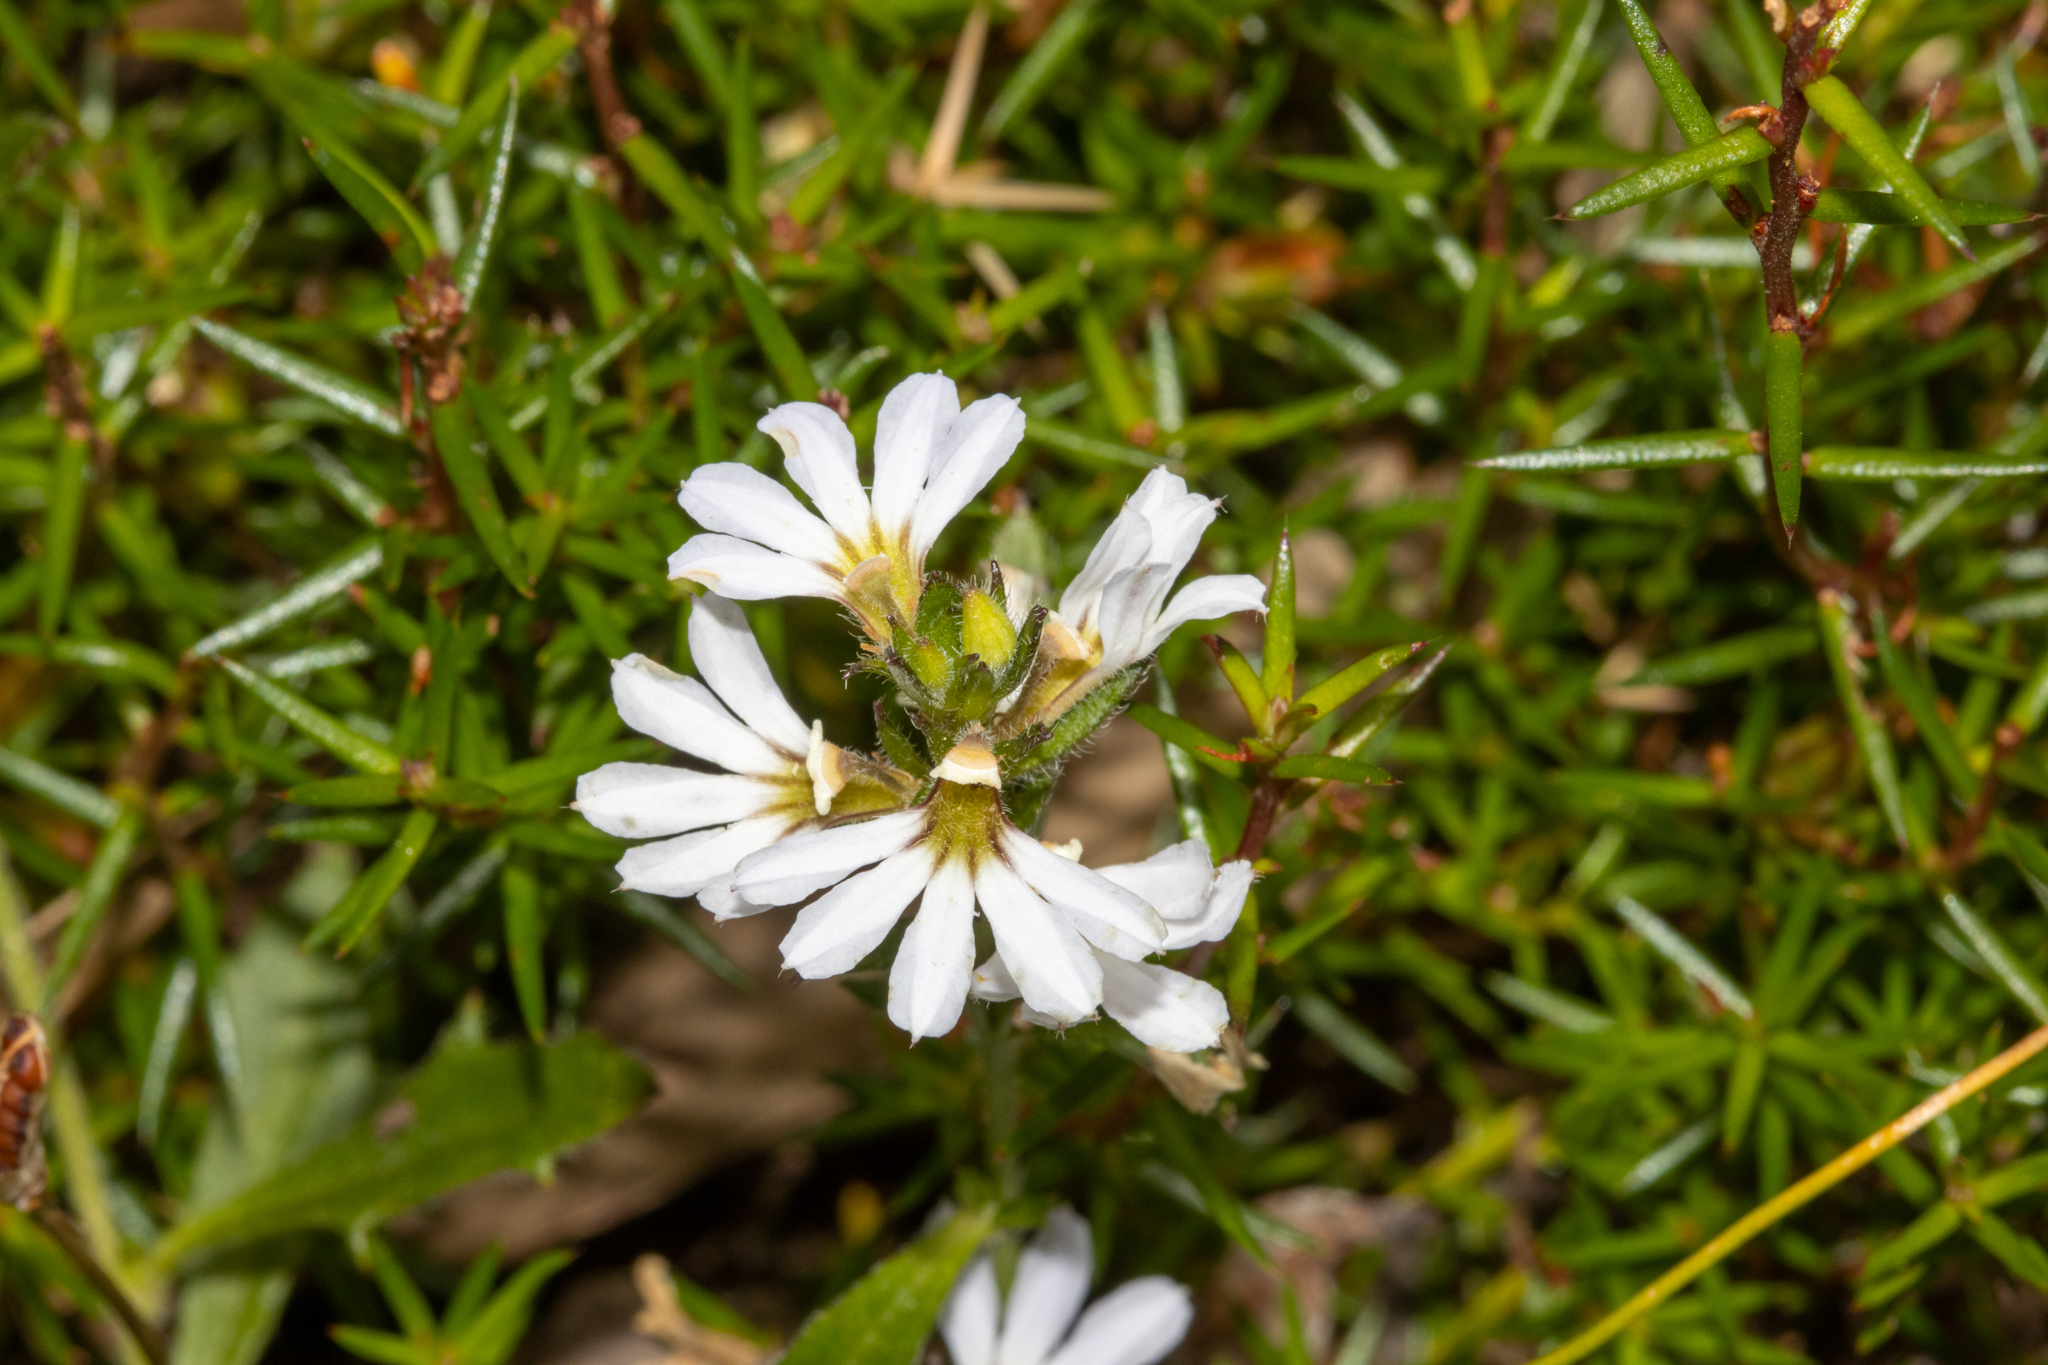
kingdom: Plantae
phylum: Tracheophyta
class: Magnoliopsida
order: Asterales
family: Goodeniaceae
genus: Scaevola
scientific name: Scaevola albida
